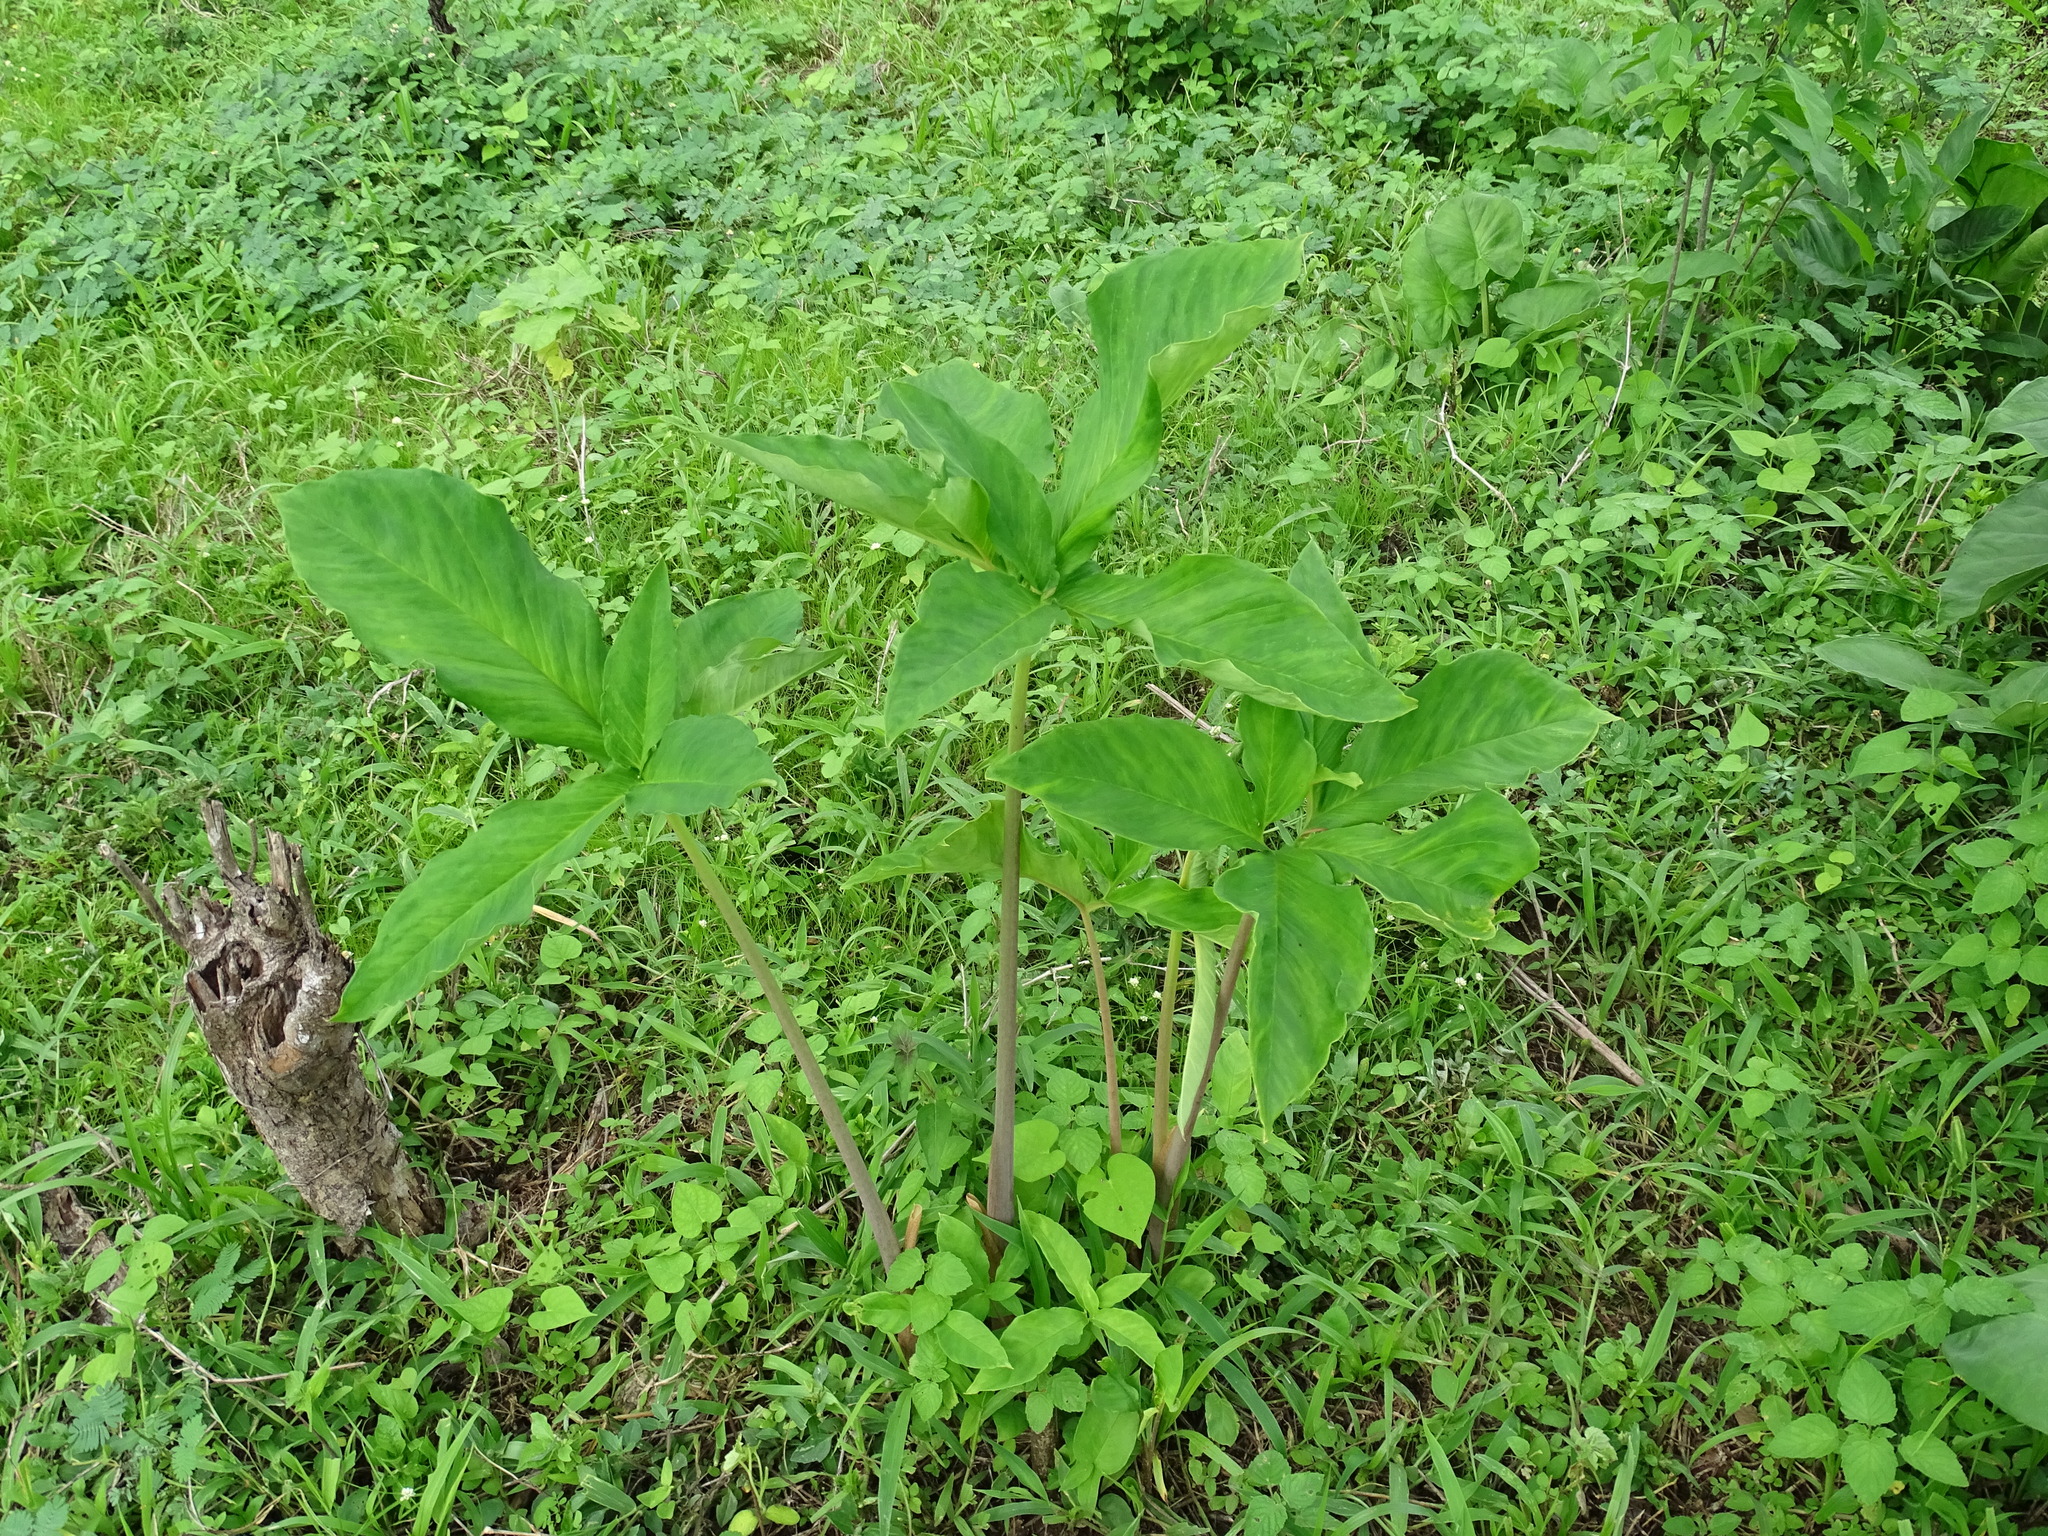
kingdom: Plantae
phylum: Tracheophyta
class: Liliopsida
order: Alismatales
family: Araceae
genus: Xanthosoma
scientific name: Xanthosoma wendlandii
